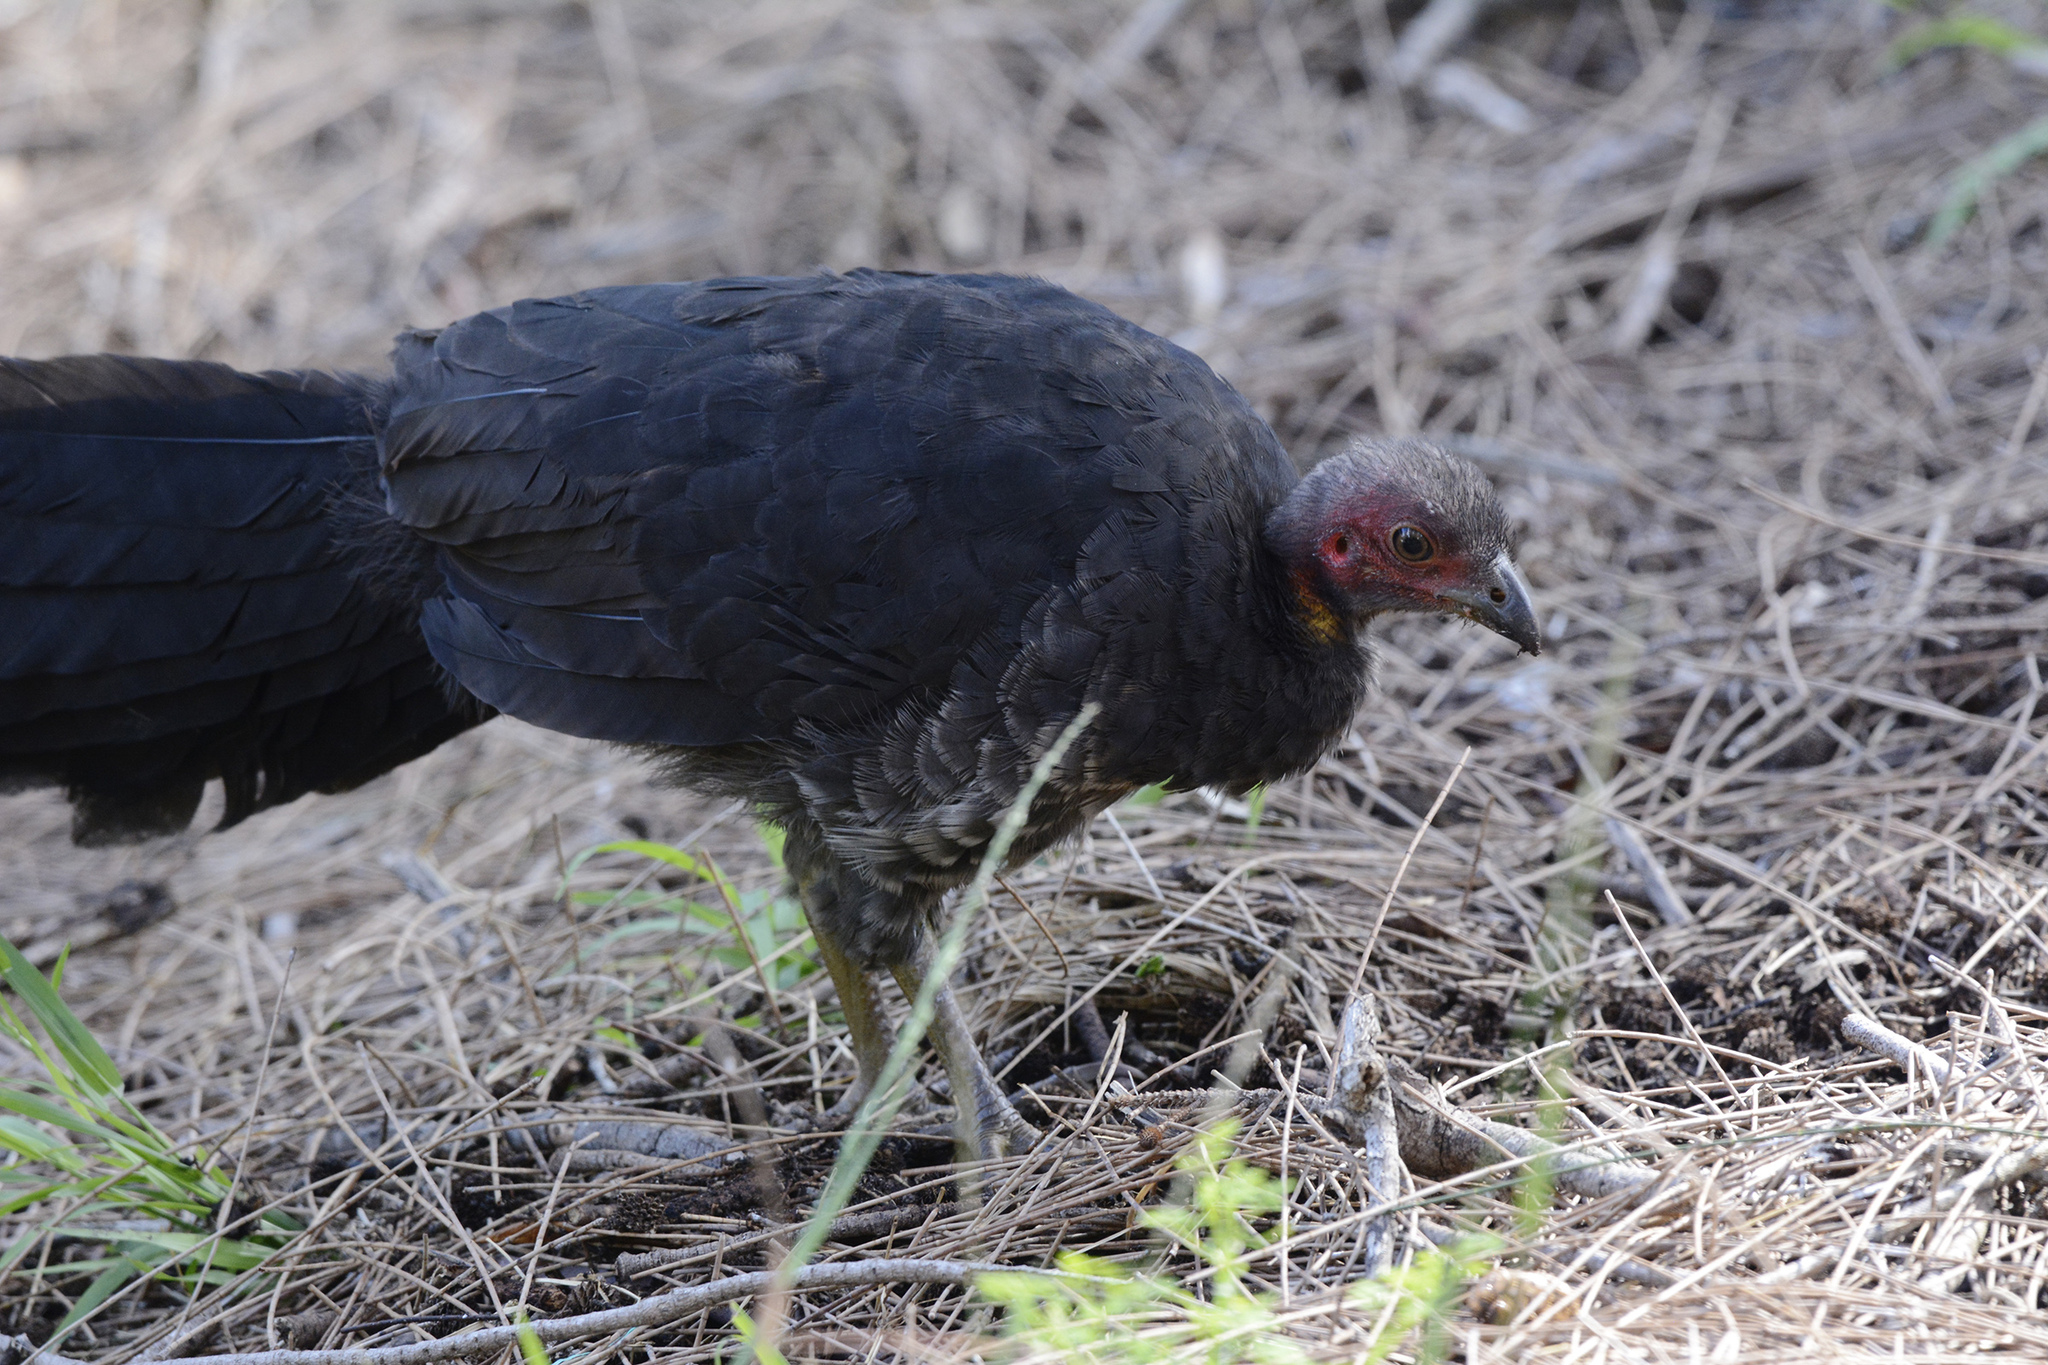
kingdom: Animalia
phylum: Chordata
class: Aves
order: Galliformes
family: Megapodiidae
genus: Alectura
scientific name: Alectura lathami
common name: Australian brushturkey
